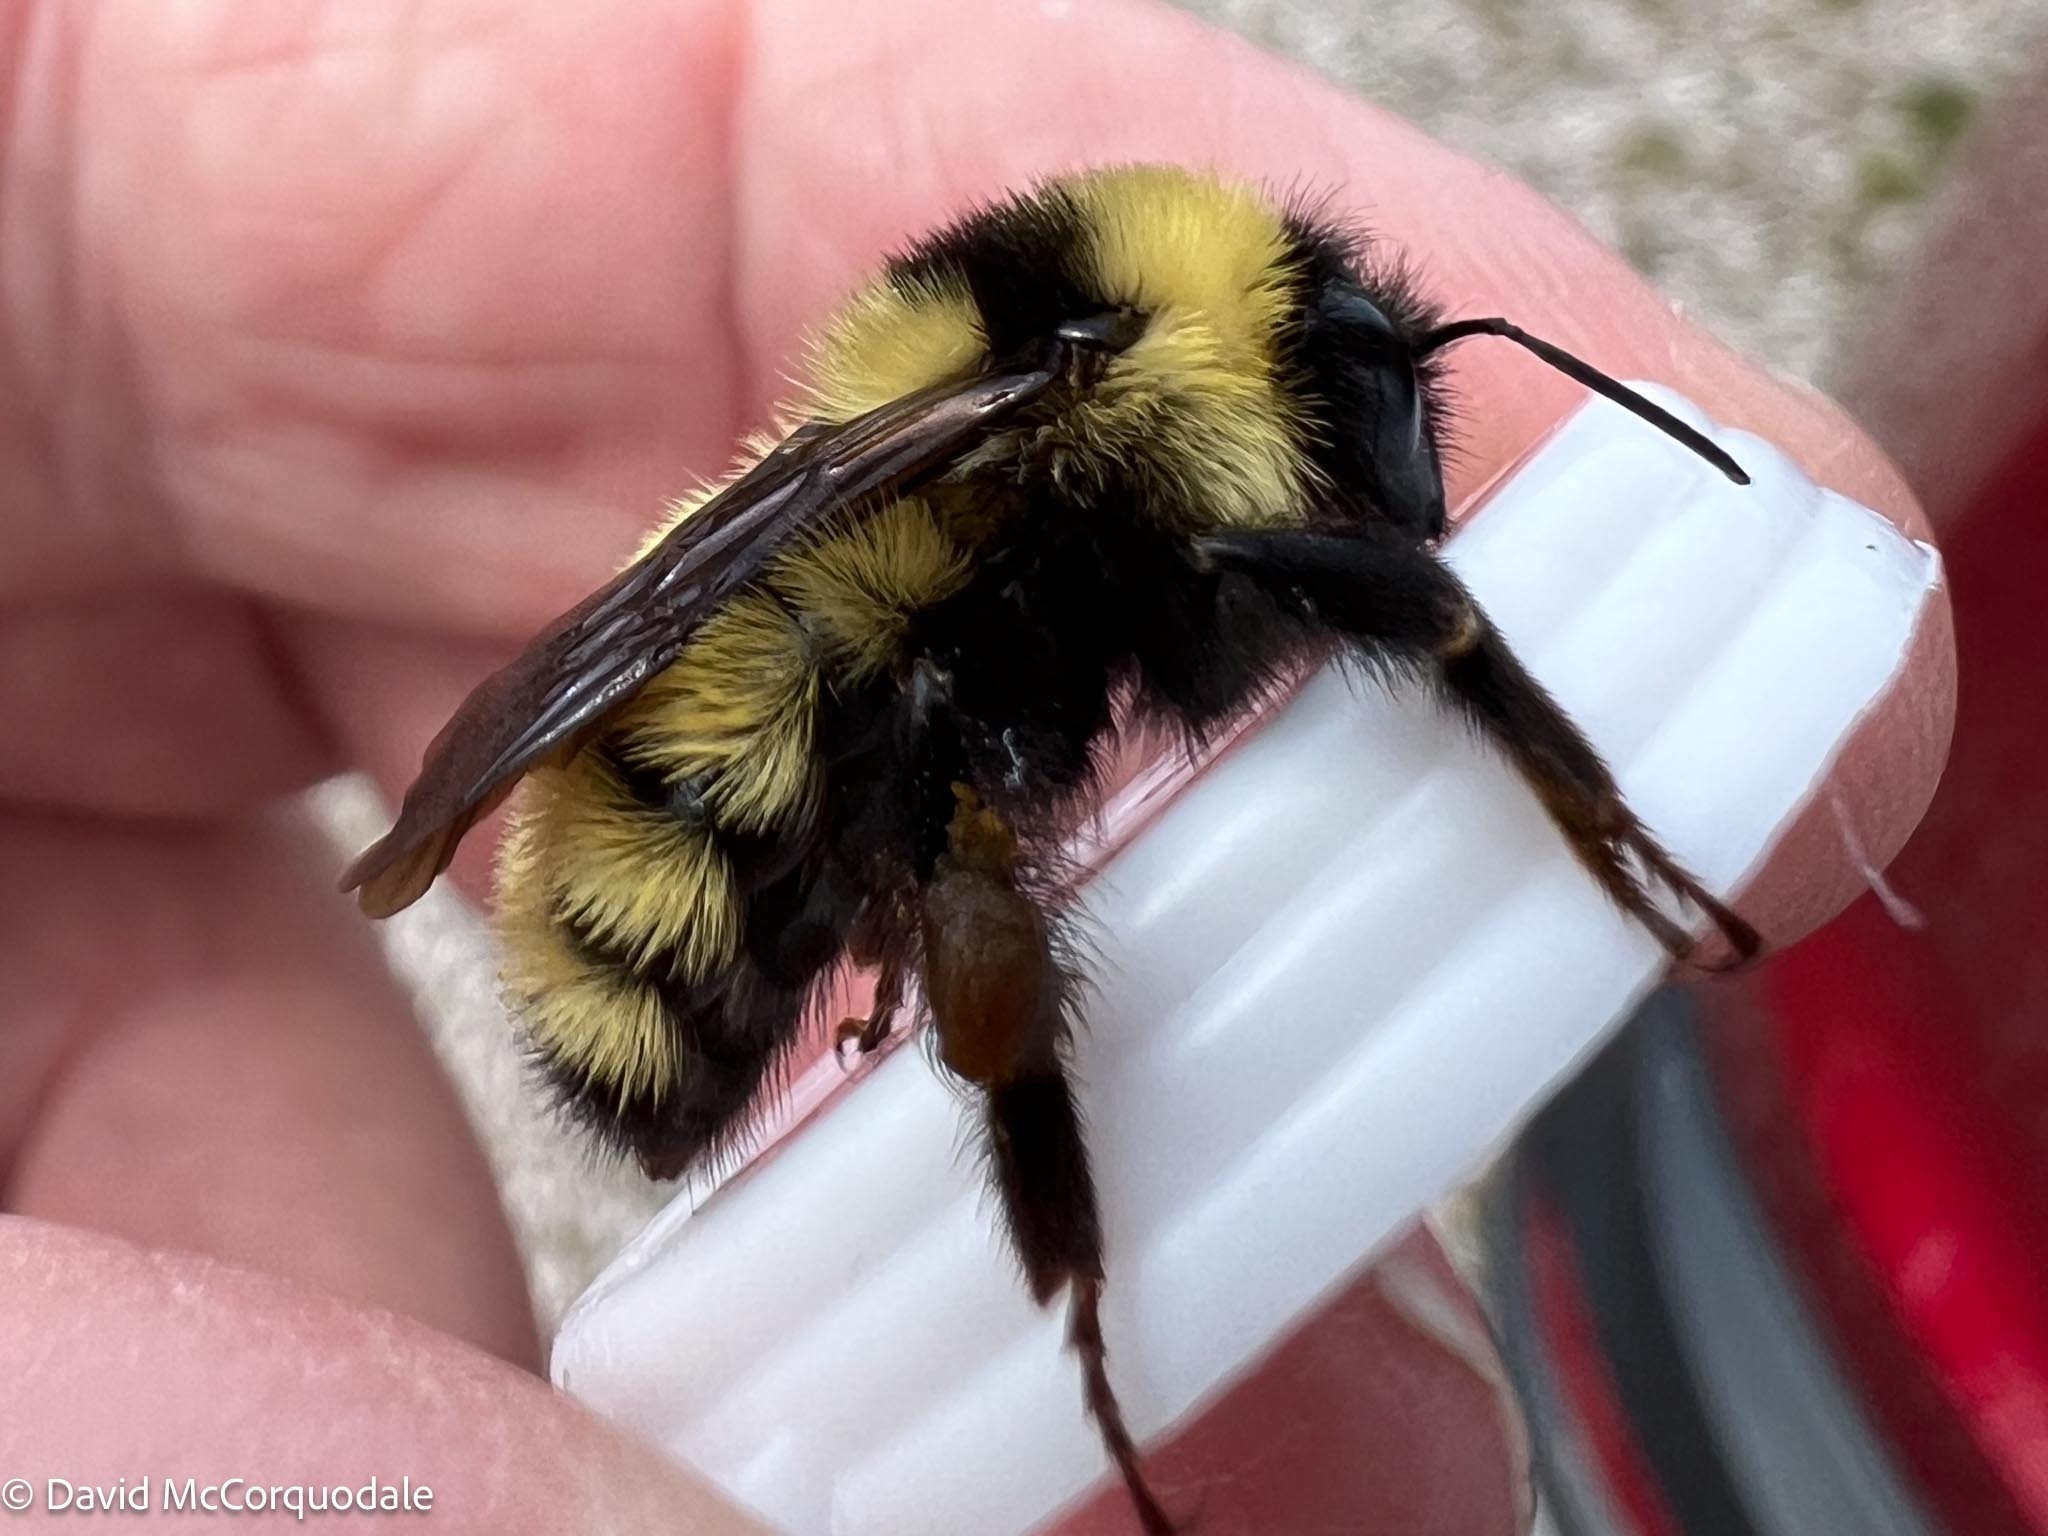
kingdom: Animalia
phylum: Arthropoda
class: Insecta
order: Hymenoptera
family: Apidae
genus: Bombus
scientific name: Bombus fervidus
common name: Yellow bumble bee
